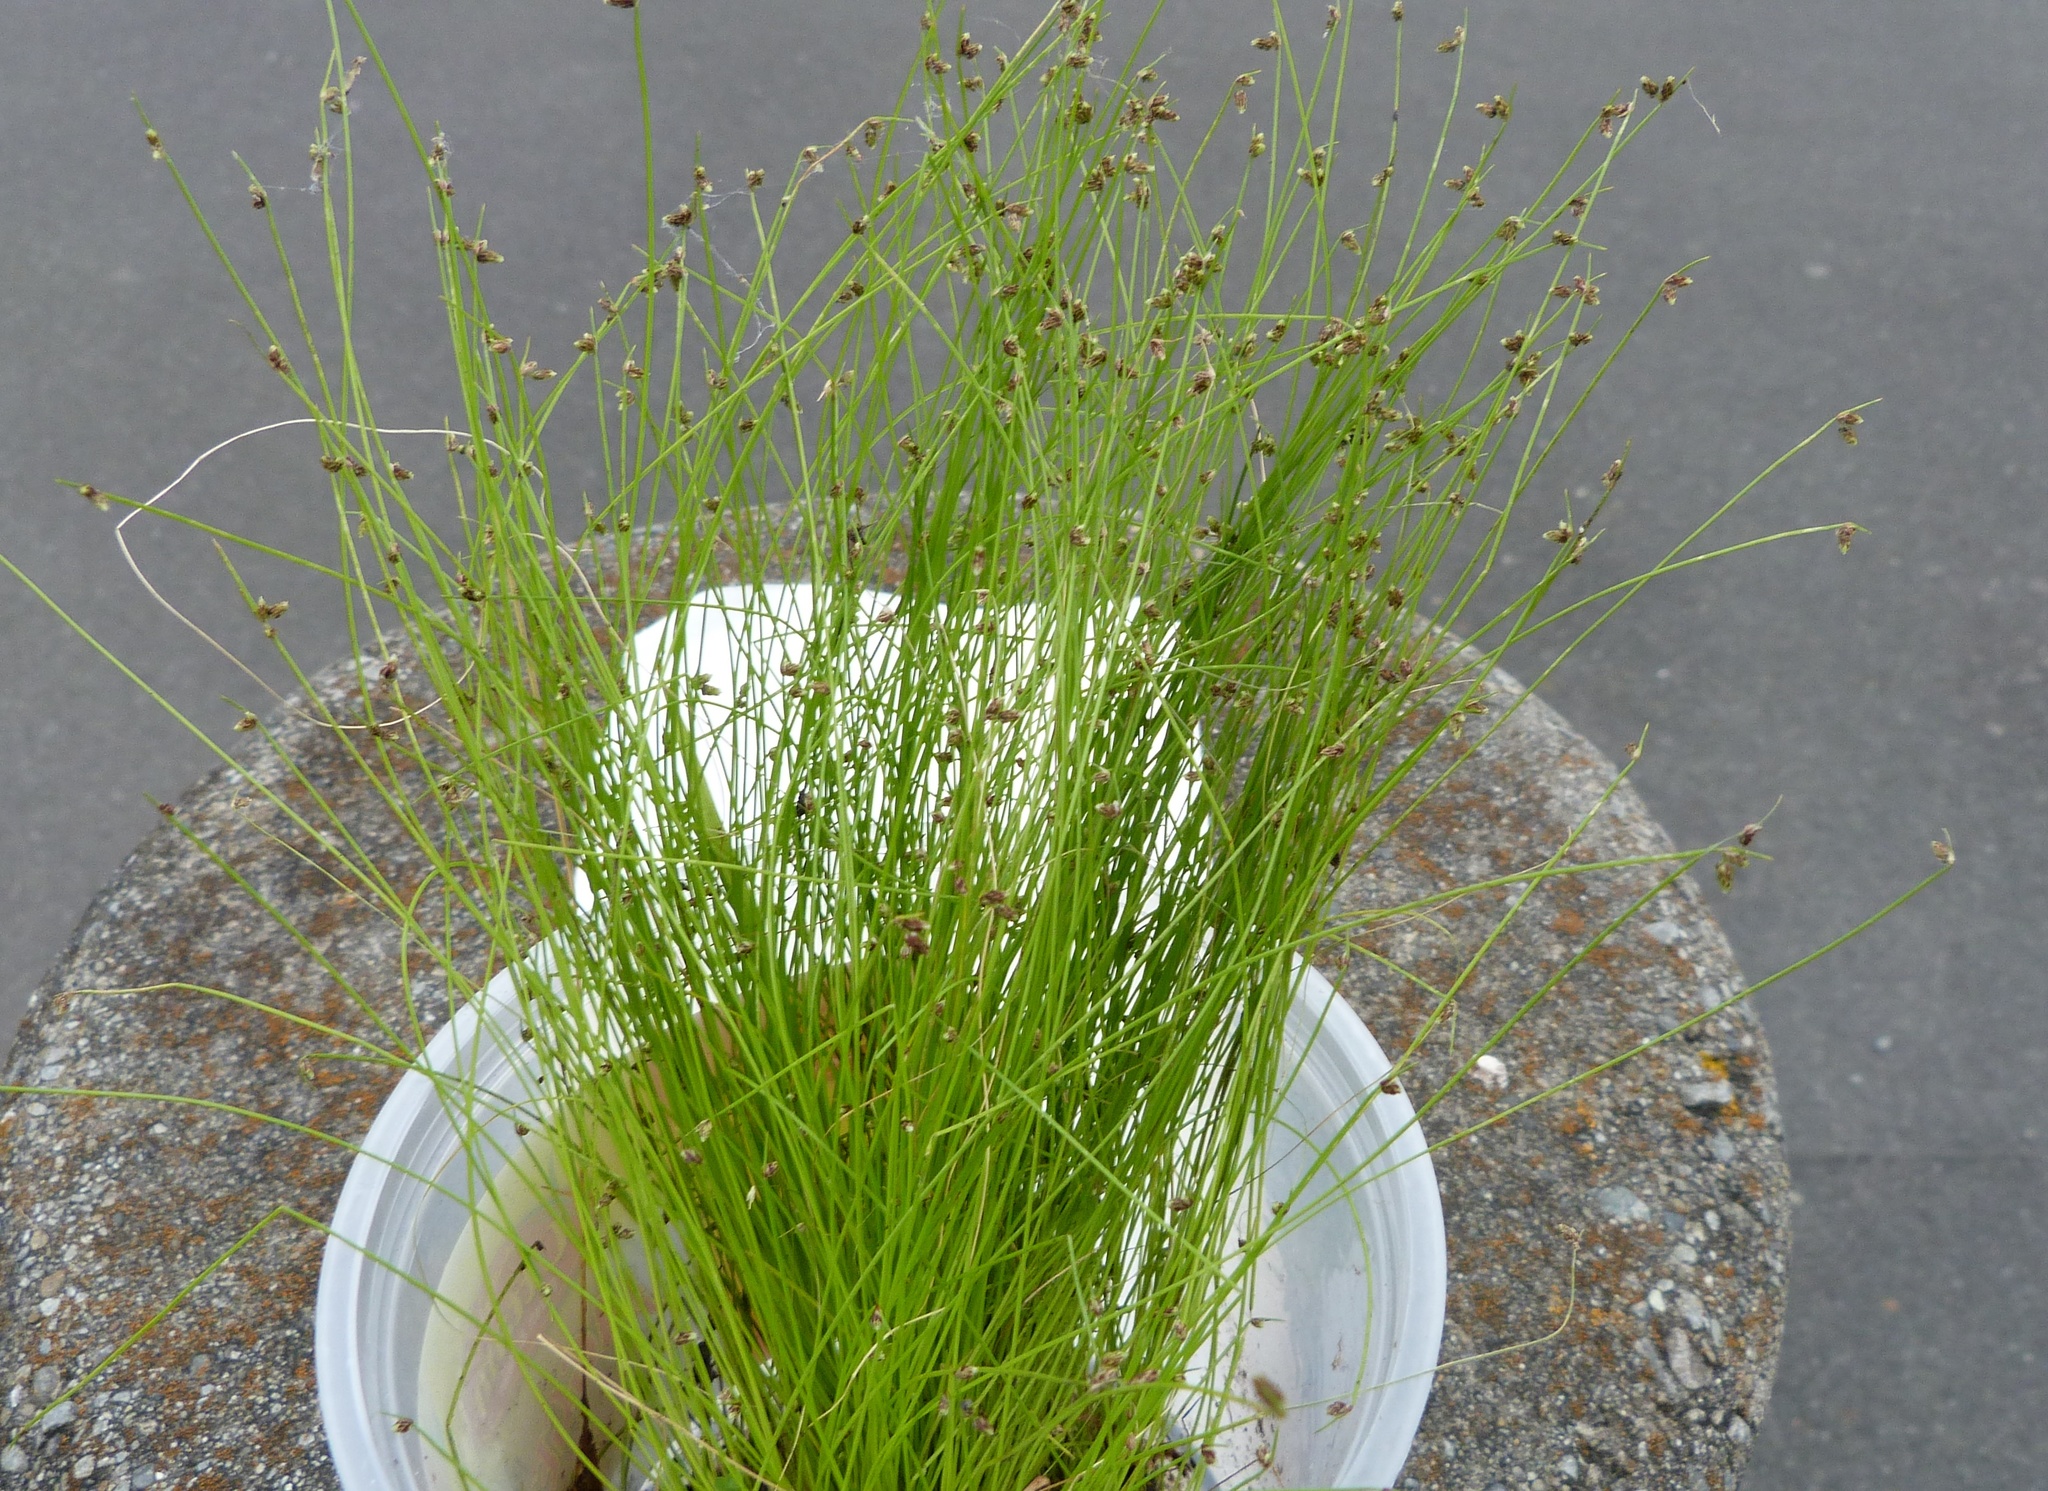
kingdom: Plantae
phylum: Tracheophyta
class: Liliopsida
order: Poales
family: Cyperaceae
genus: Isolepis
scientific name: Isolepis sepulcralis
